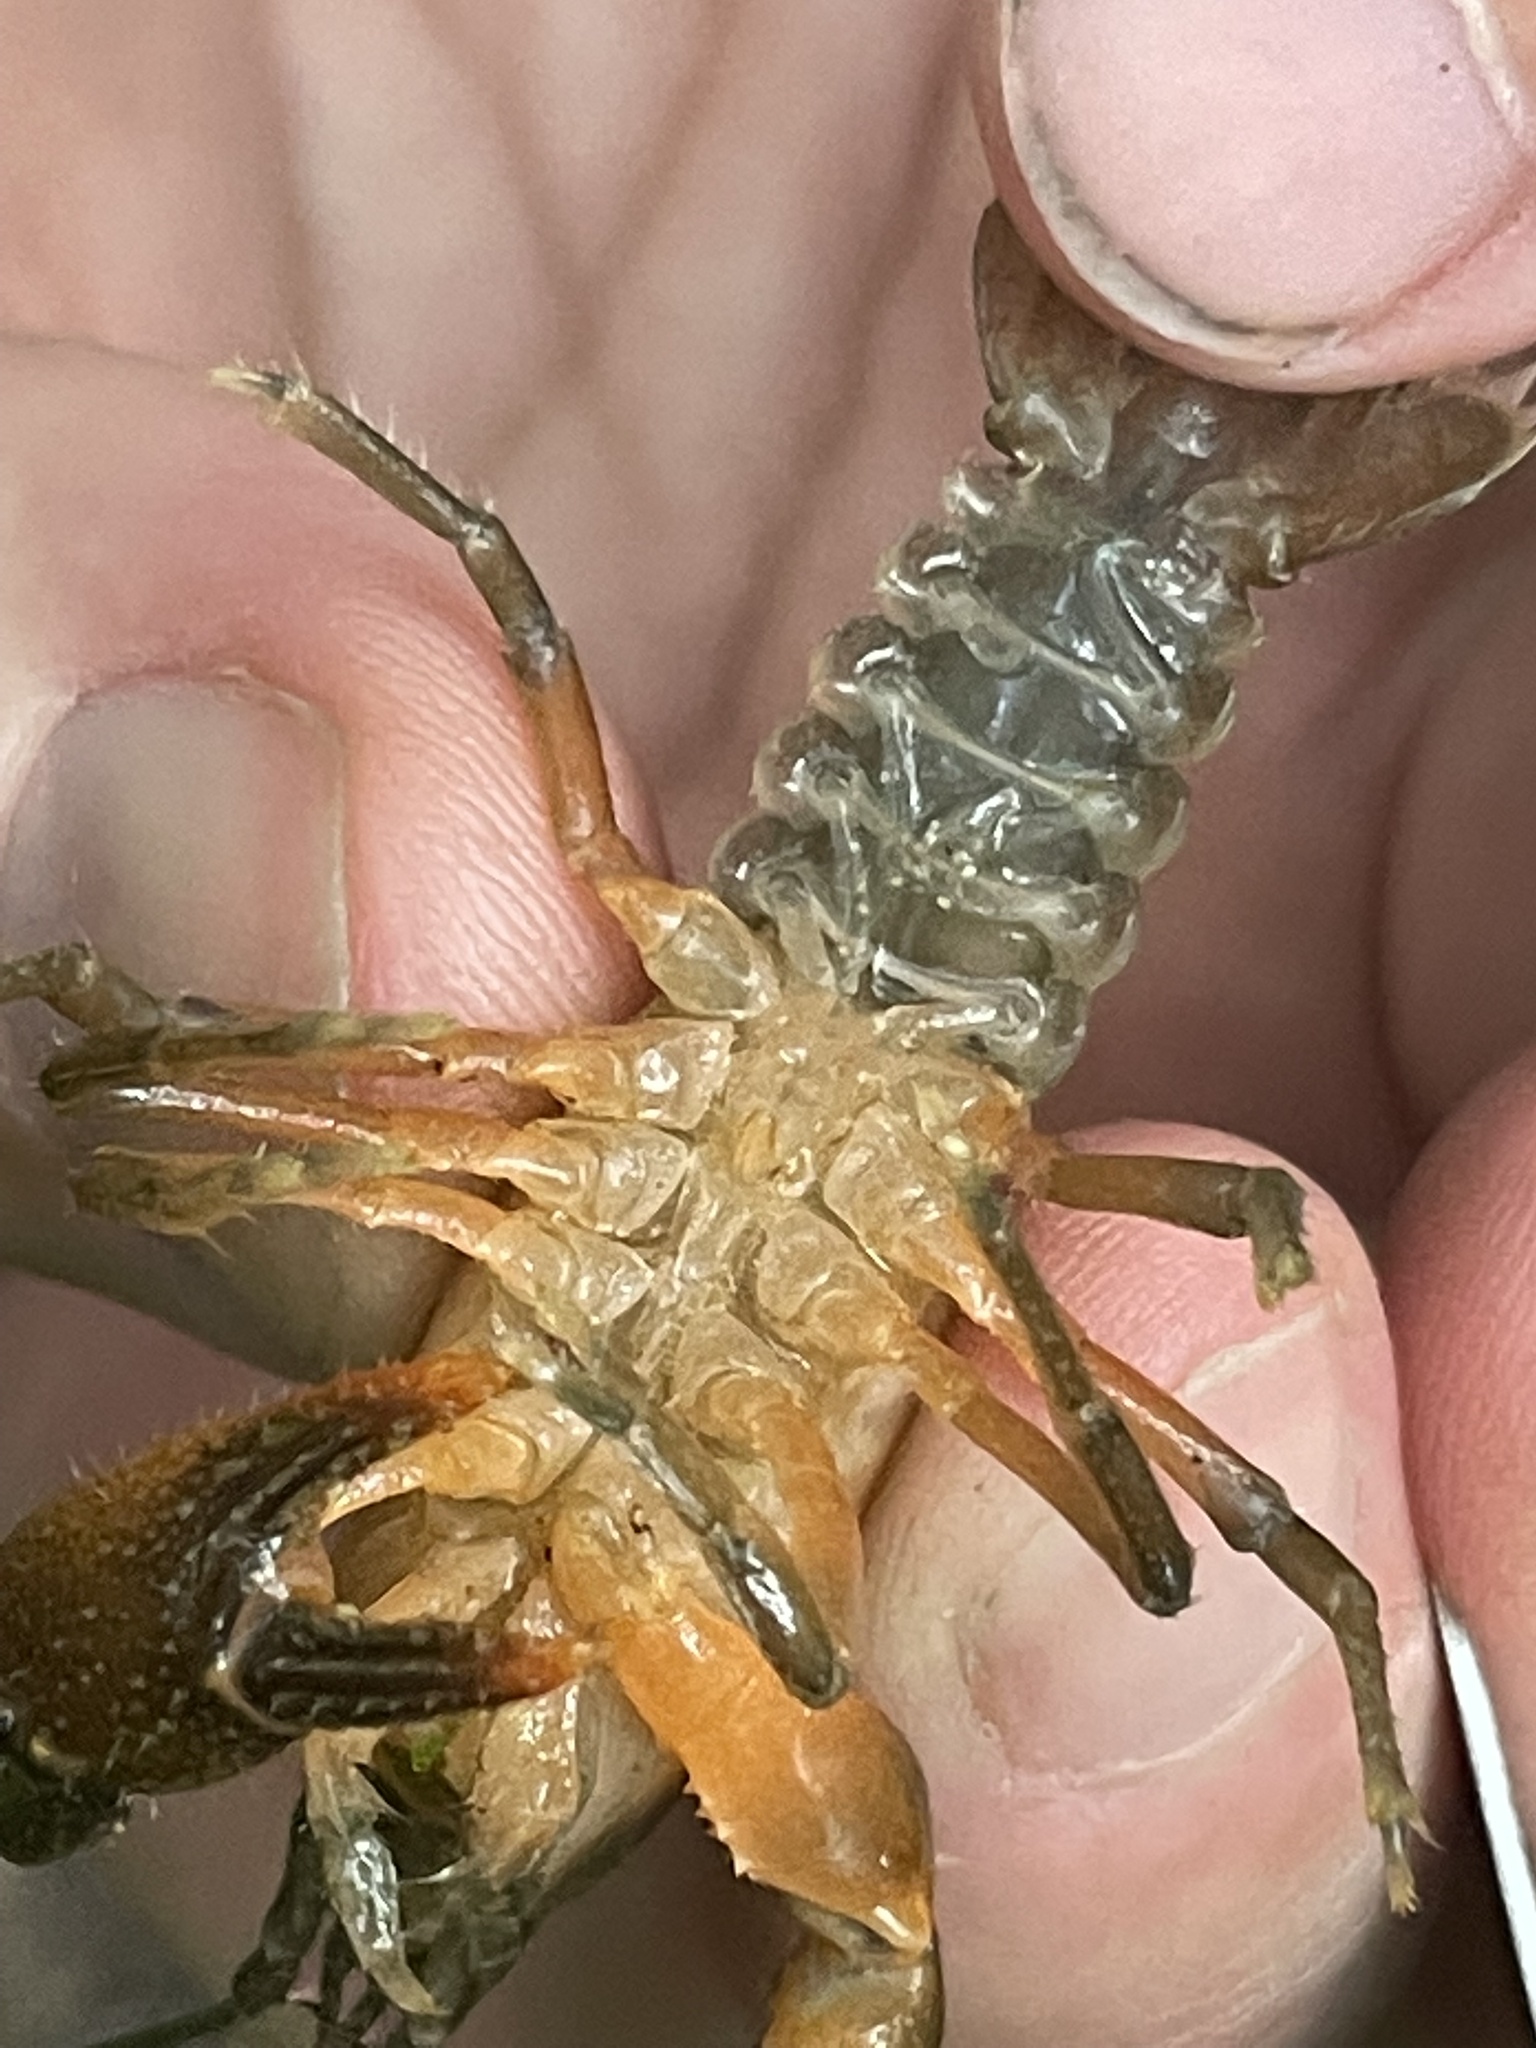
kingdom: Animalia
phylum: Arthropoda
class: Malacostraca
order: Decapoda
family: Cambaridae
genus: Cambarus
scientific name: Cambarus nodosus
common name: Knotty burrowing crayfish
